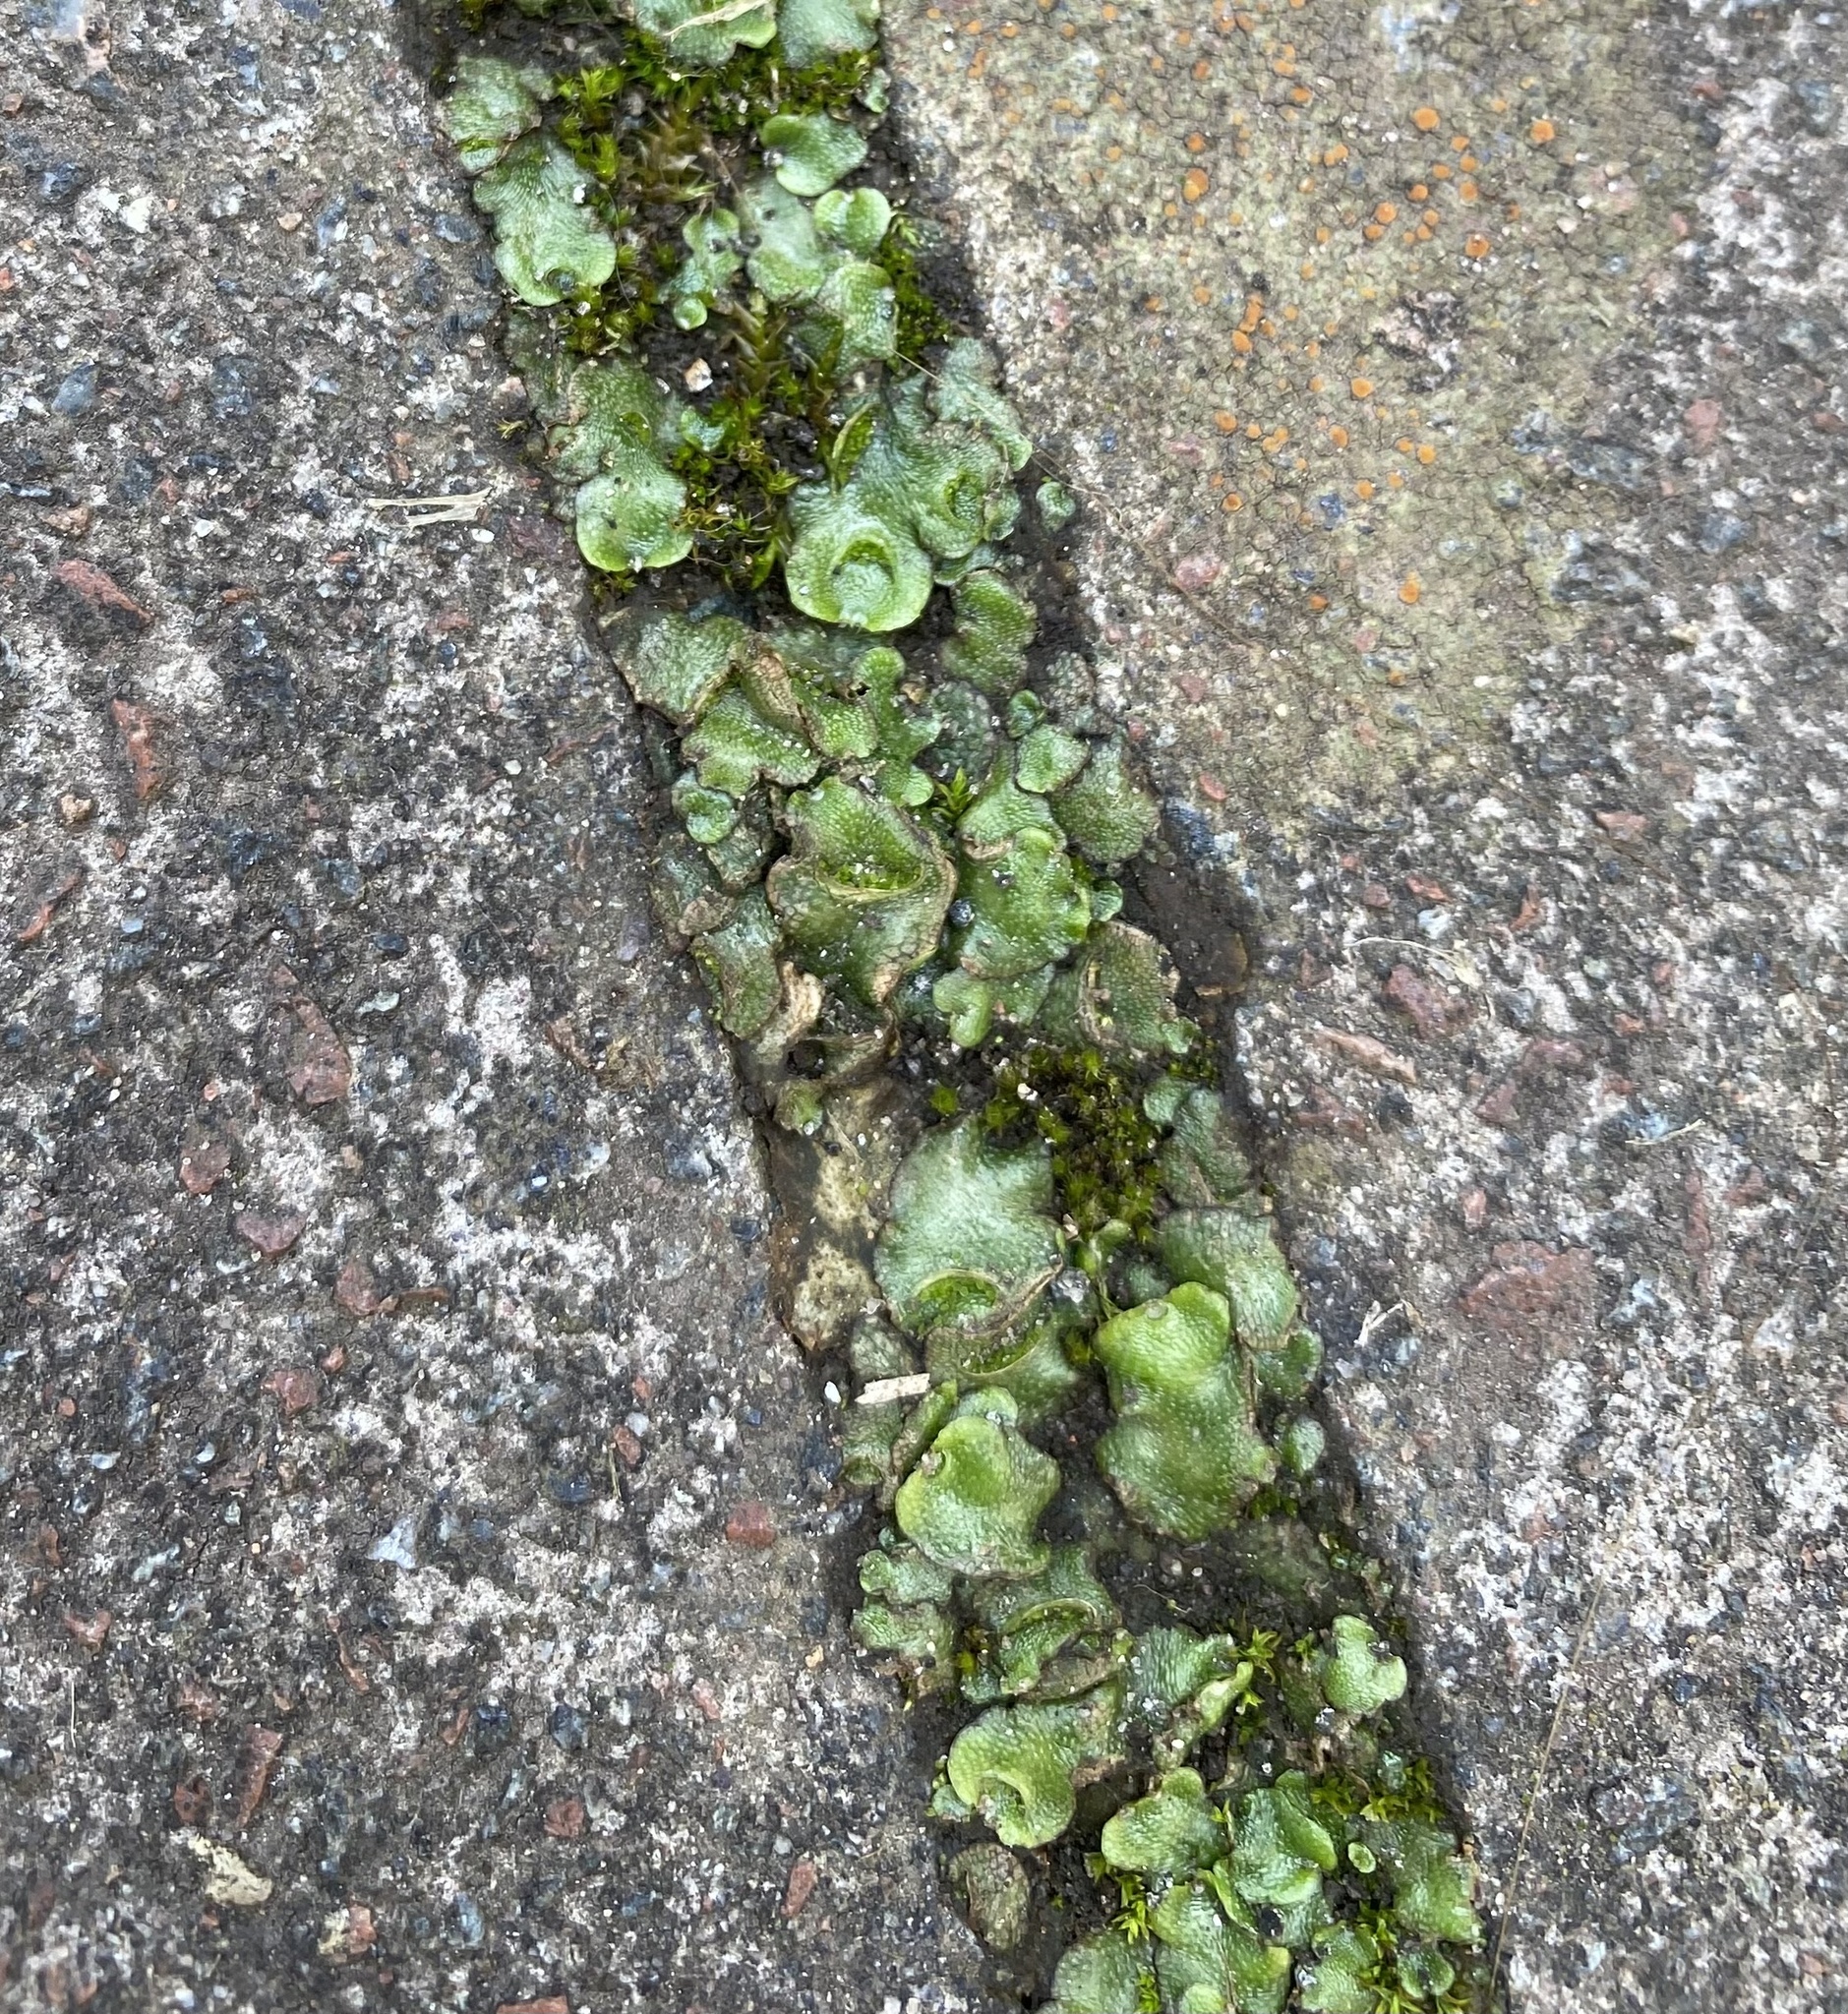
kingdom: Plantae
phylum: Marchantiophyta
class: Marchantiopsida
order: Lunulariales
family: Lunulariaceae
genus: Lunularia
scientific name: Lunularia cruciata
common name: Crescent-cup liverwort
